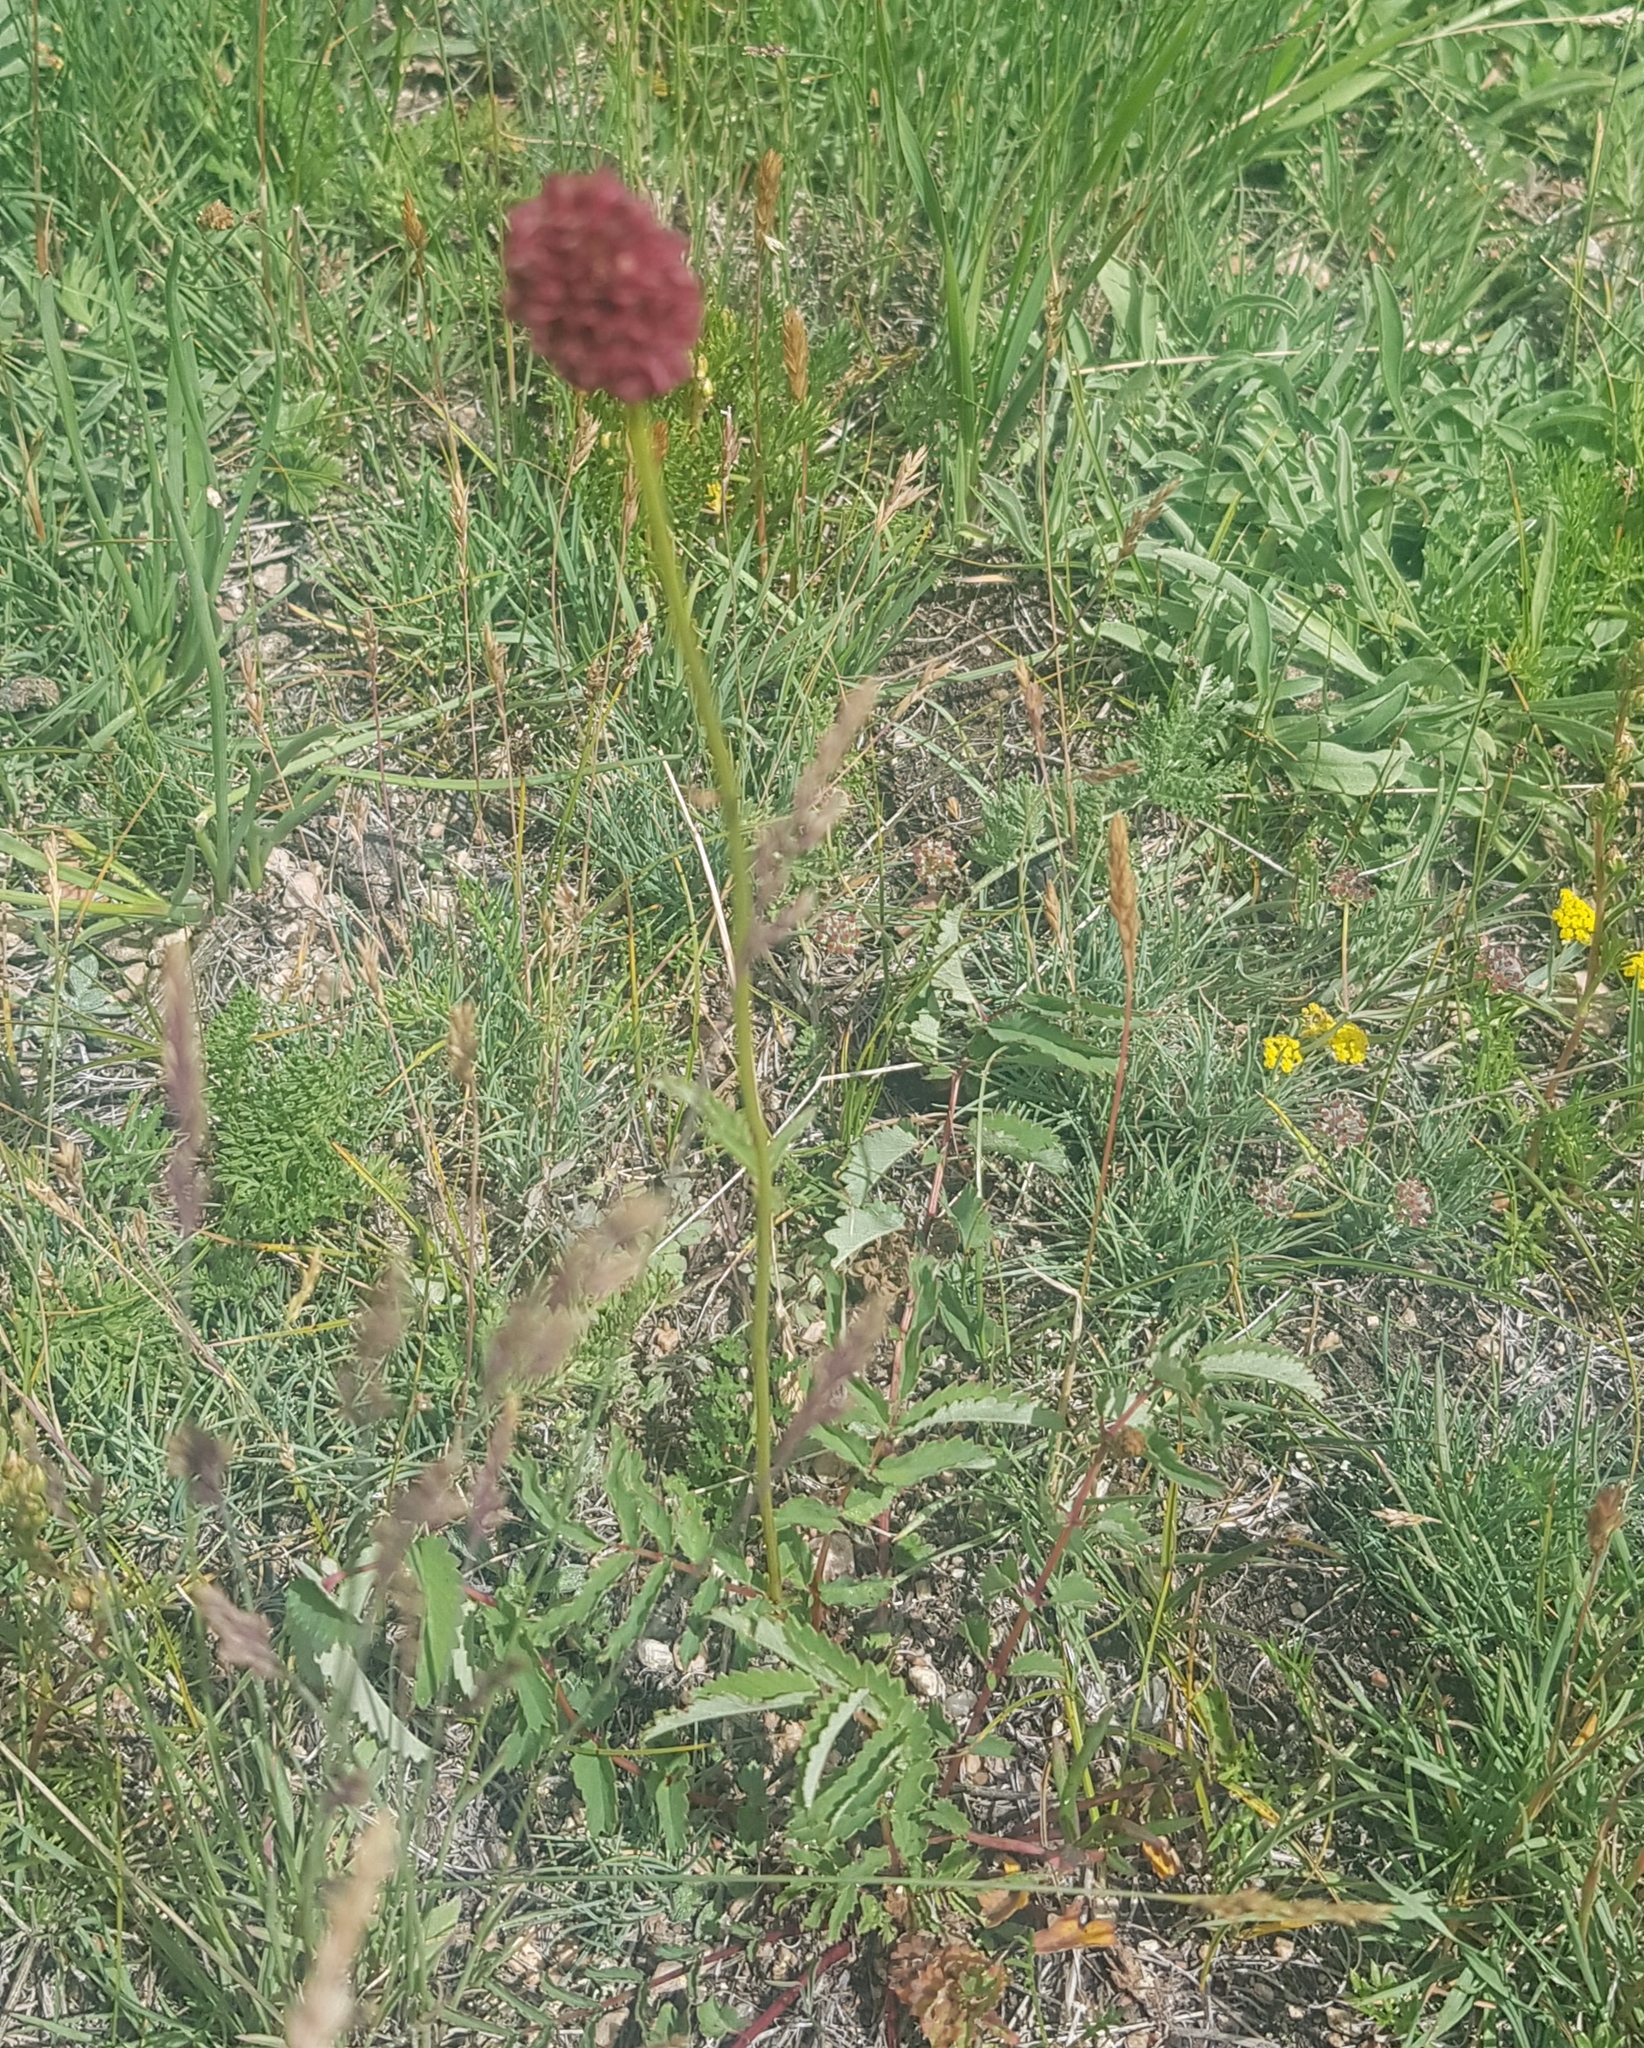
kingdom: Plantae
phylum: Tracheophyta
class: Magnoliopsida
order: Rosales
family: Rosaceae
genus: Sanguisorba
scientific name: Sanguisorba officinalis
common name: Great burnet
